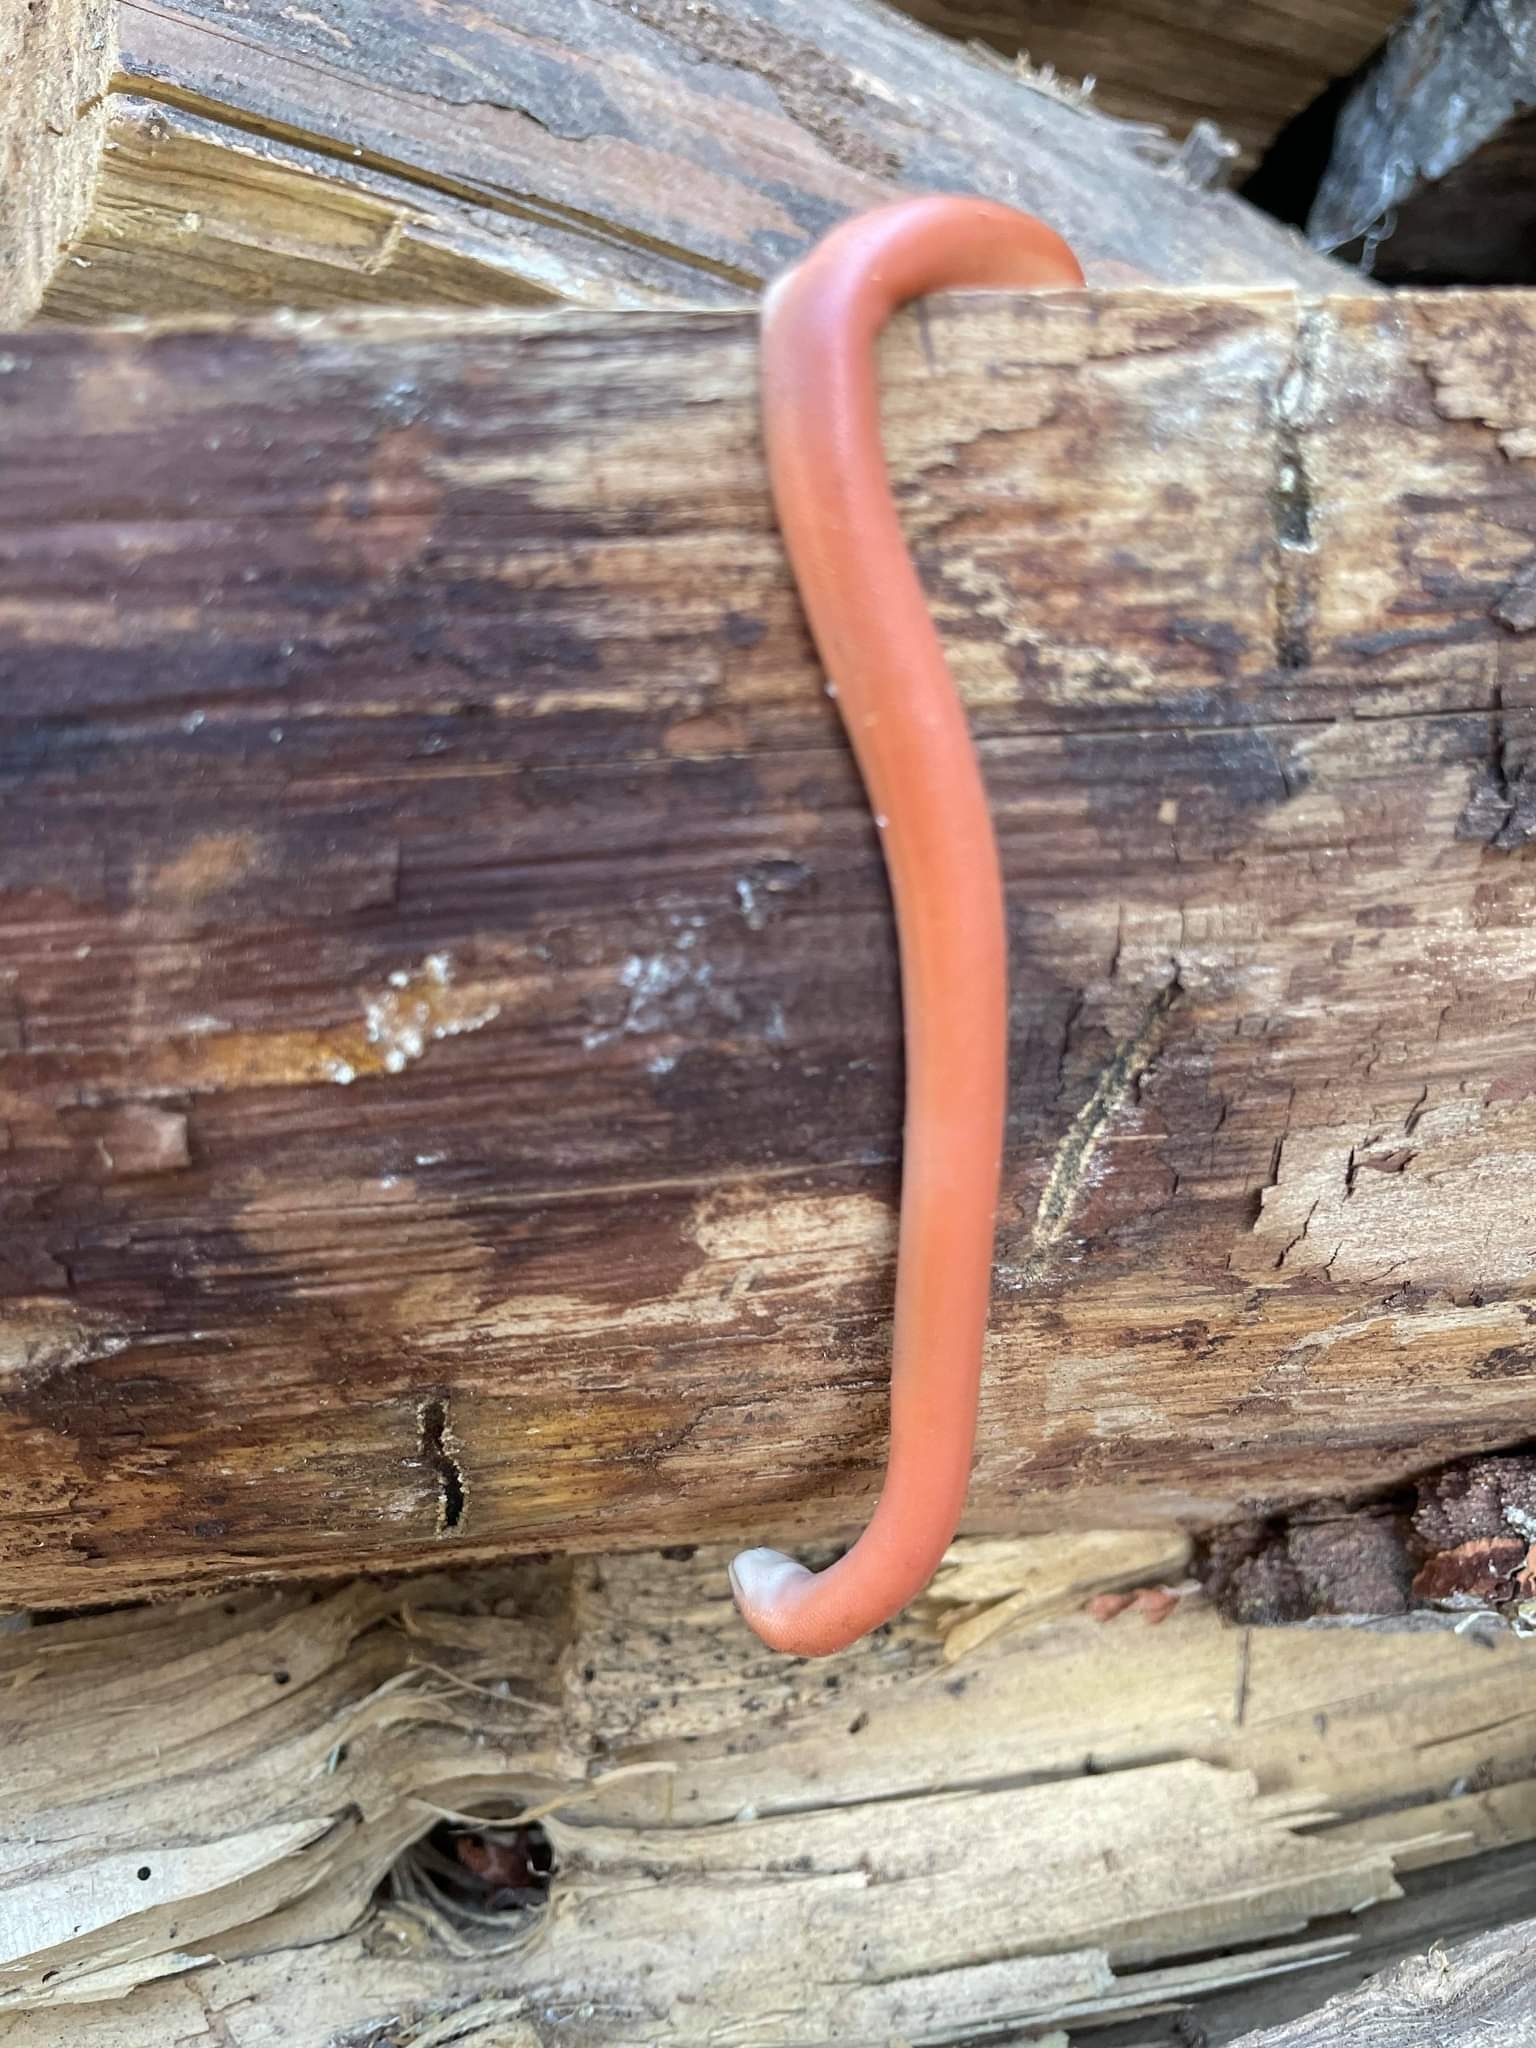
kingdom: Animalia
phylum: Chordata
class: Squamata
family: Boidae
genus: Charina
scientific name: Charina bottae
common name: Northern rubber boa
